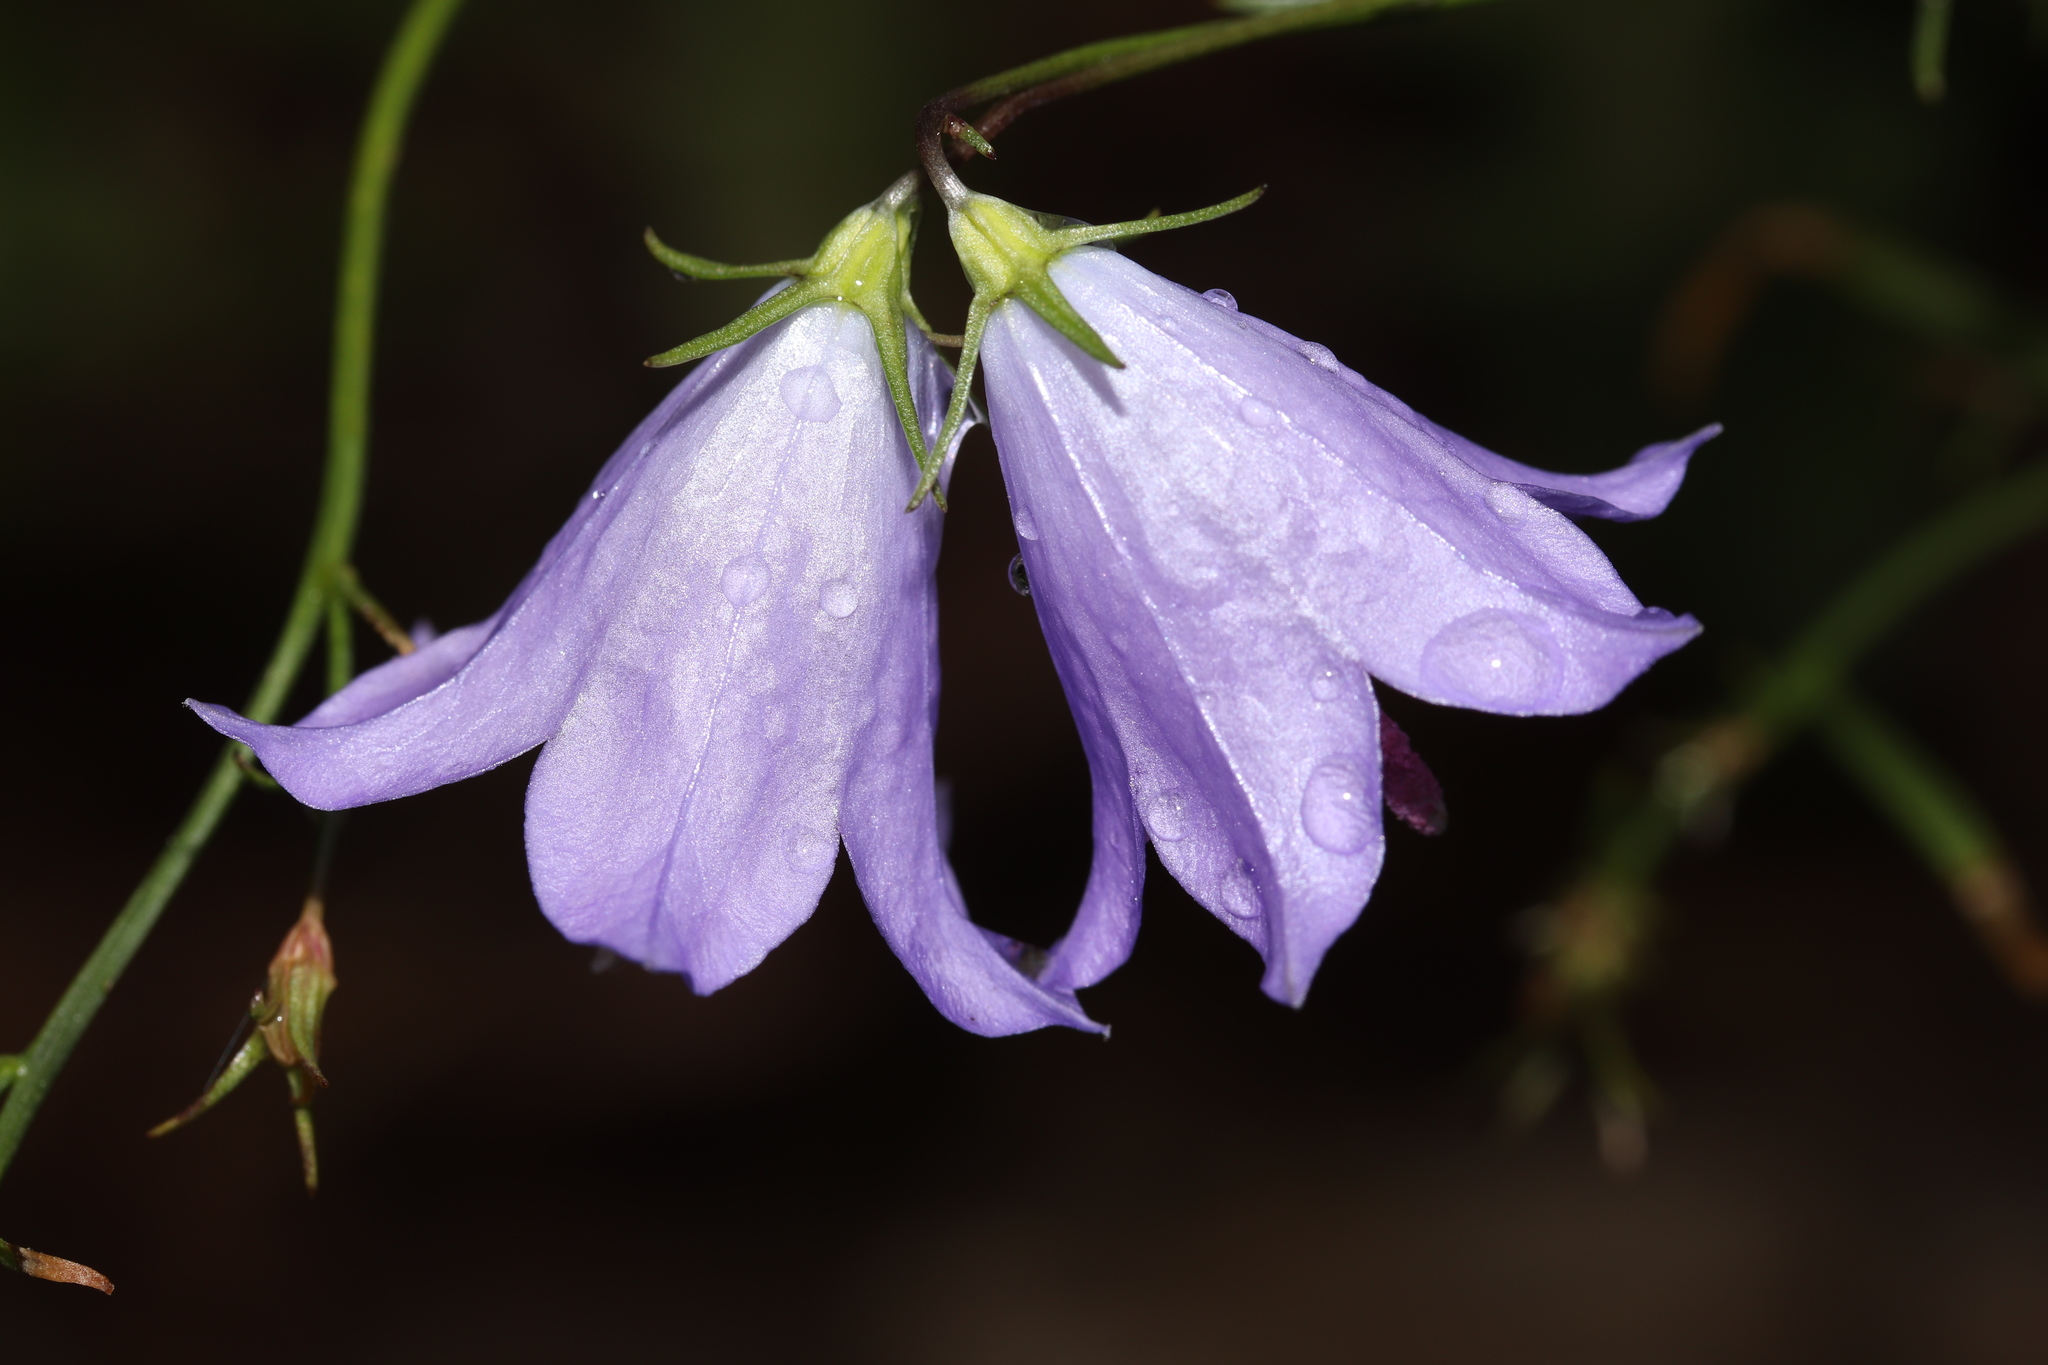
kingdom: Plantae
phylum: Tracheophyta
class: Magnoliopsida
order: Asterales
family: Campanulaceae
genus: Campanula
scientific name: Campanula petiolata
